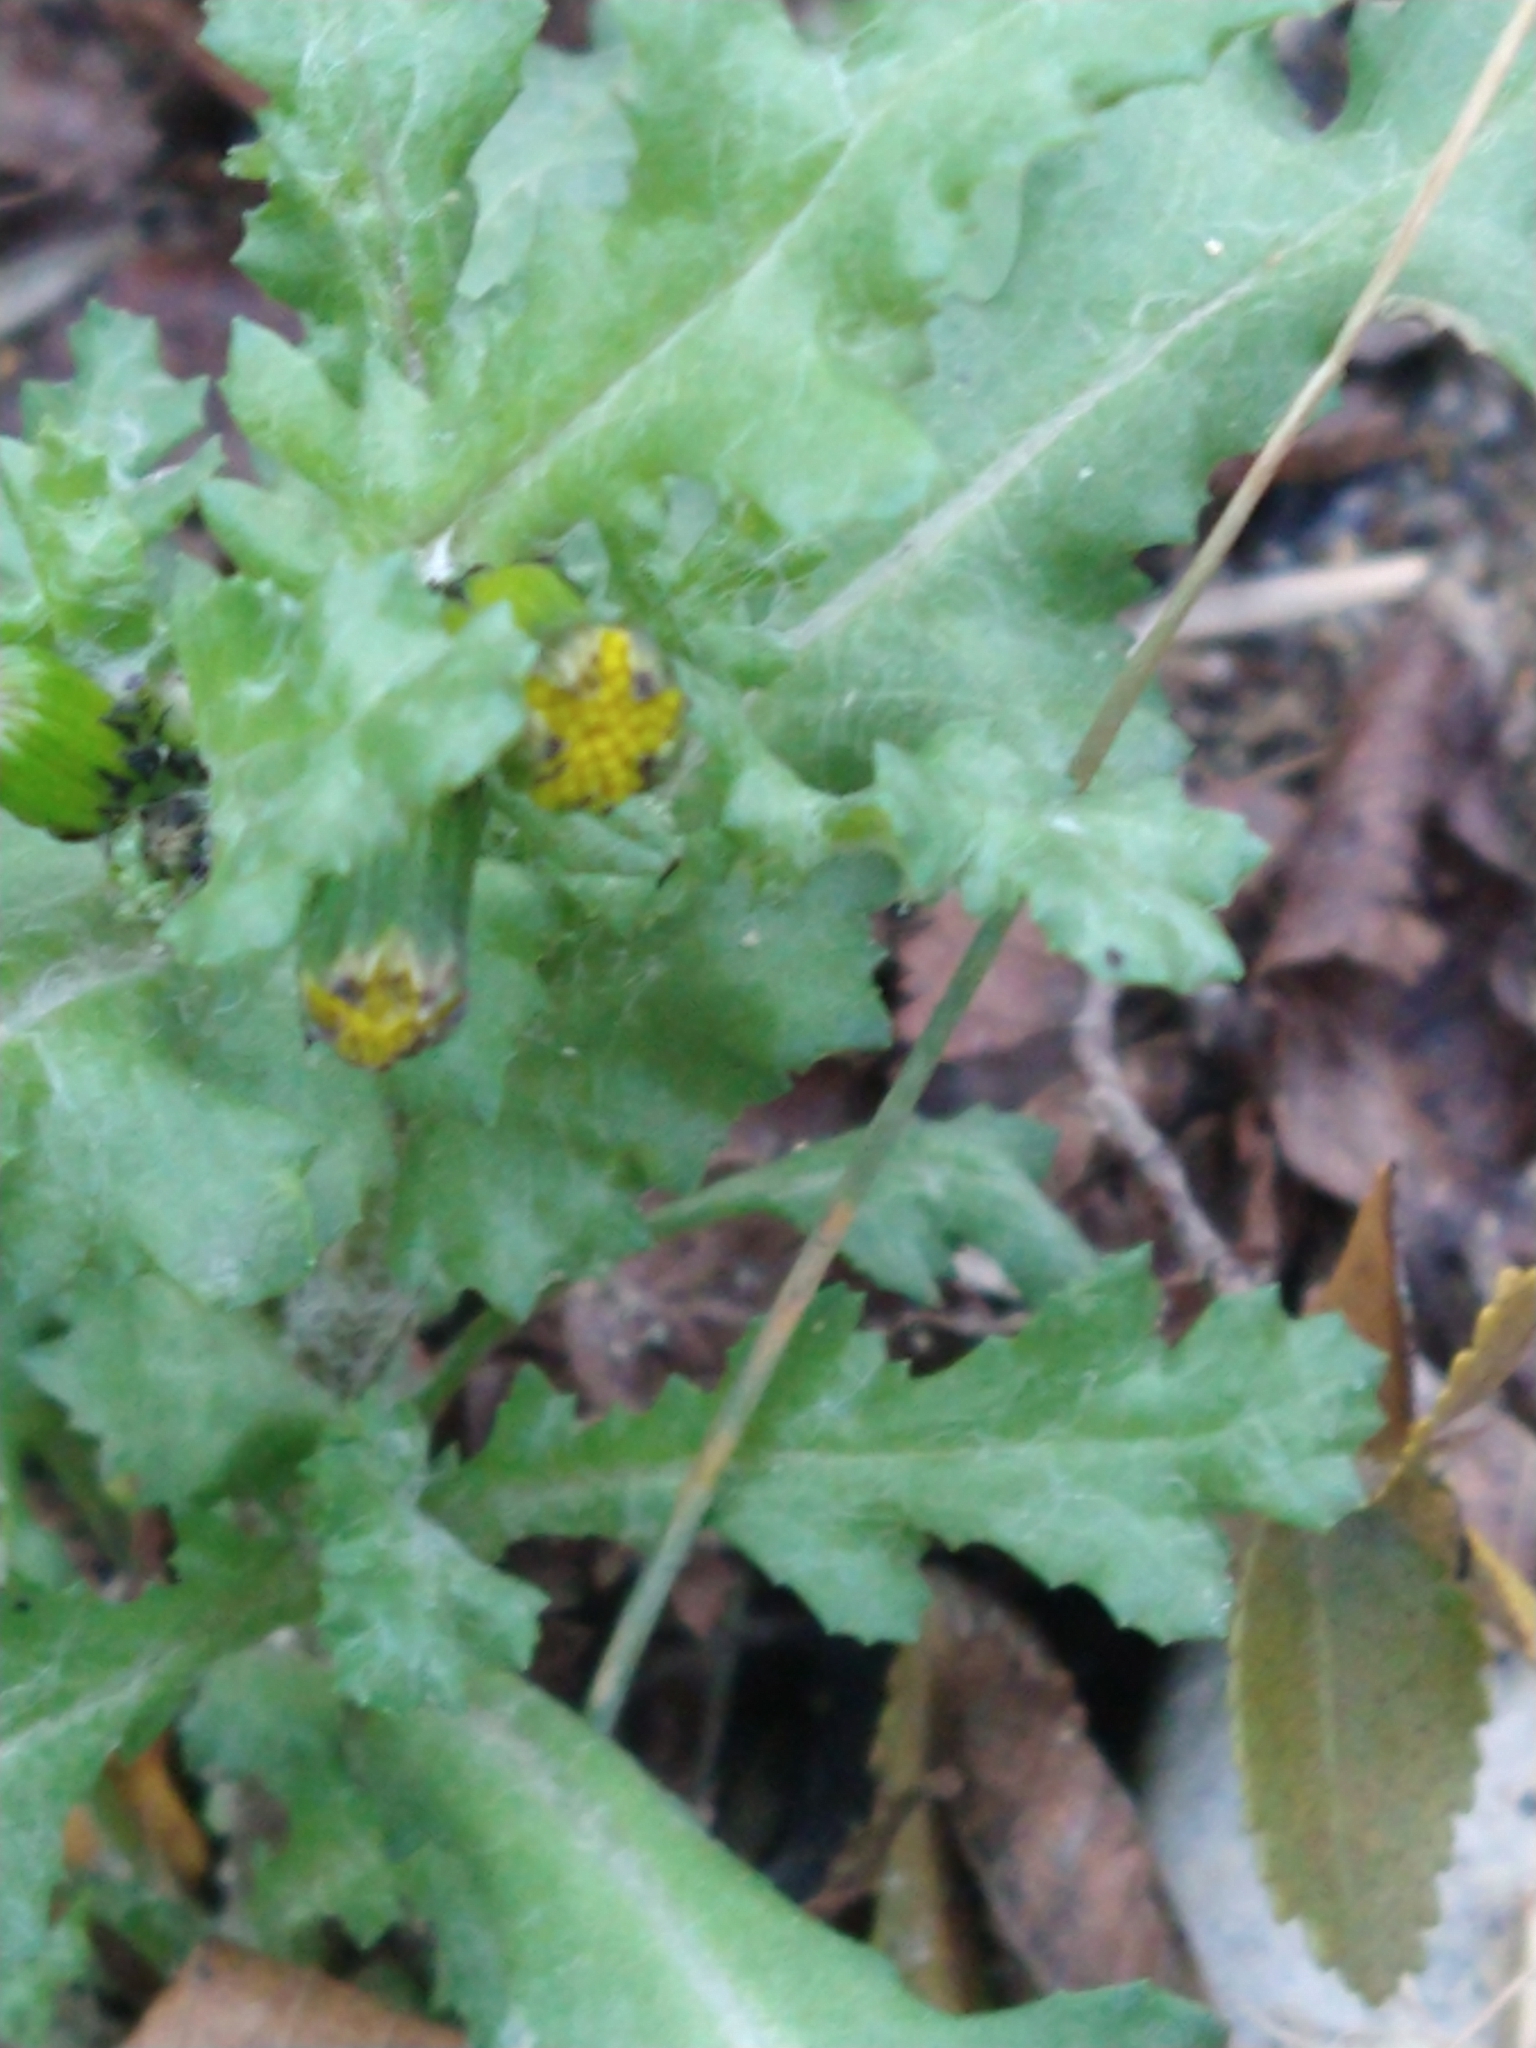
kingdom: Plantae
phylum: Tracheophyta
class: Magnoliopsida
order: Asterales
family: Asteraceae
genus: Senecio
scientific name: Senecio vulgaris
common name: Old-man-in-the-spring
